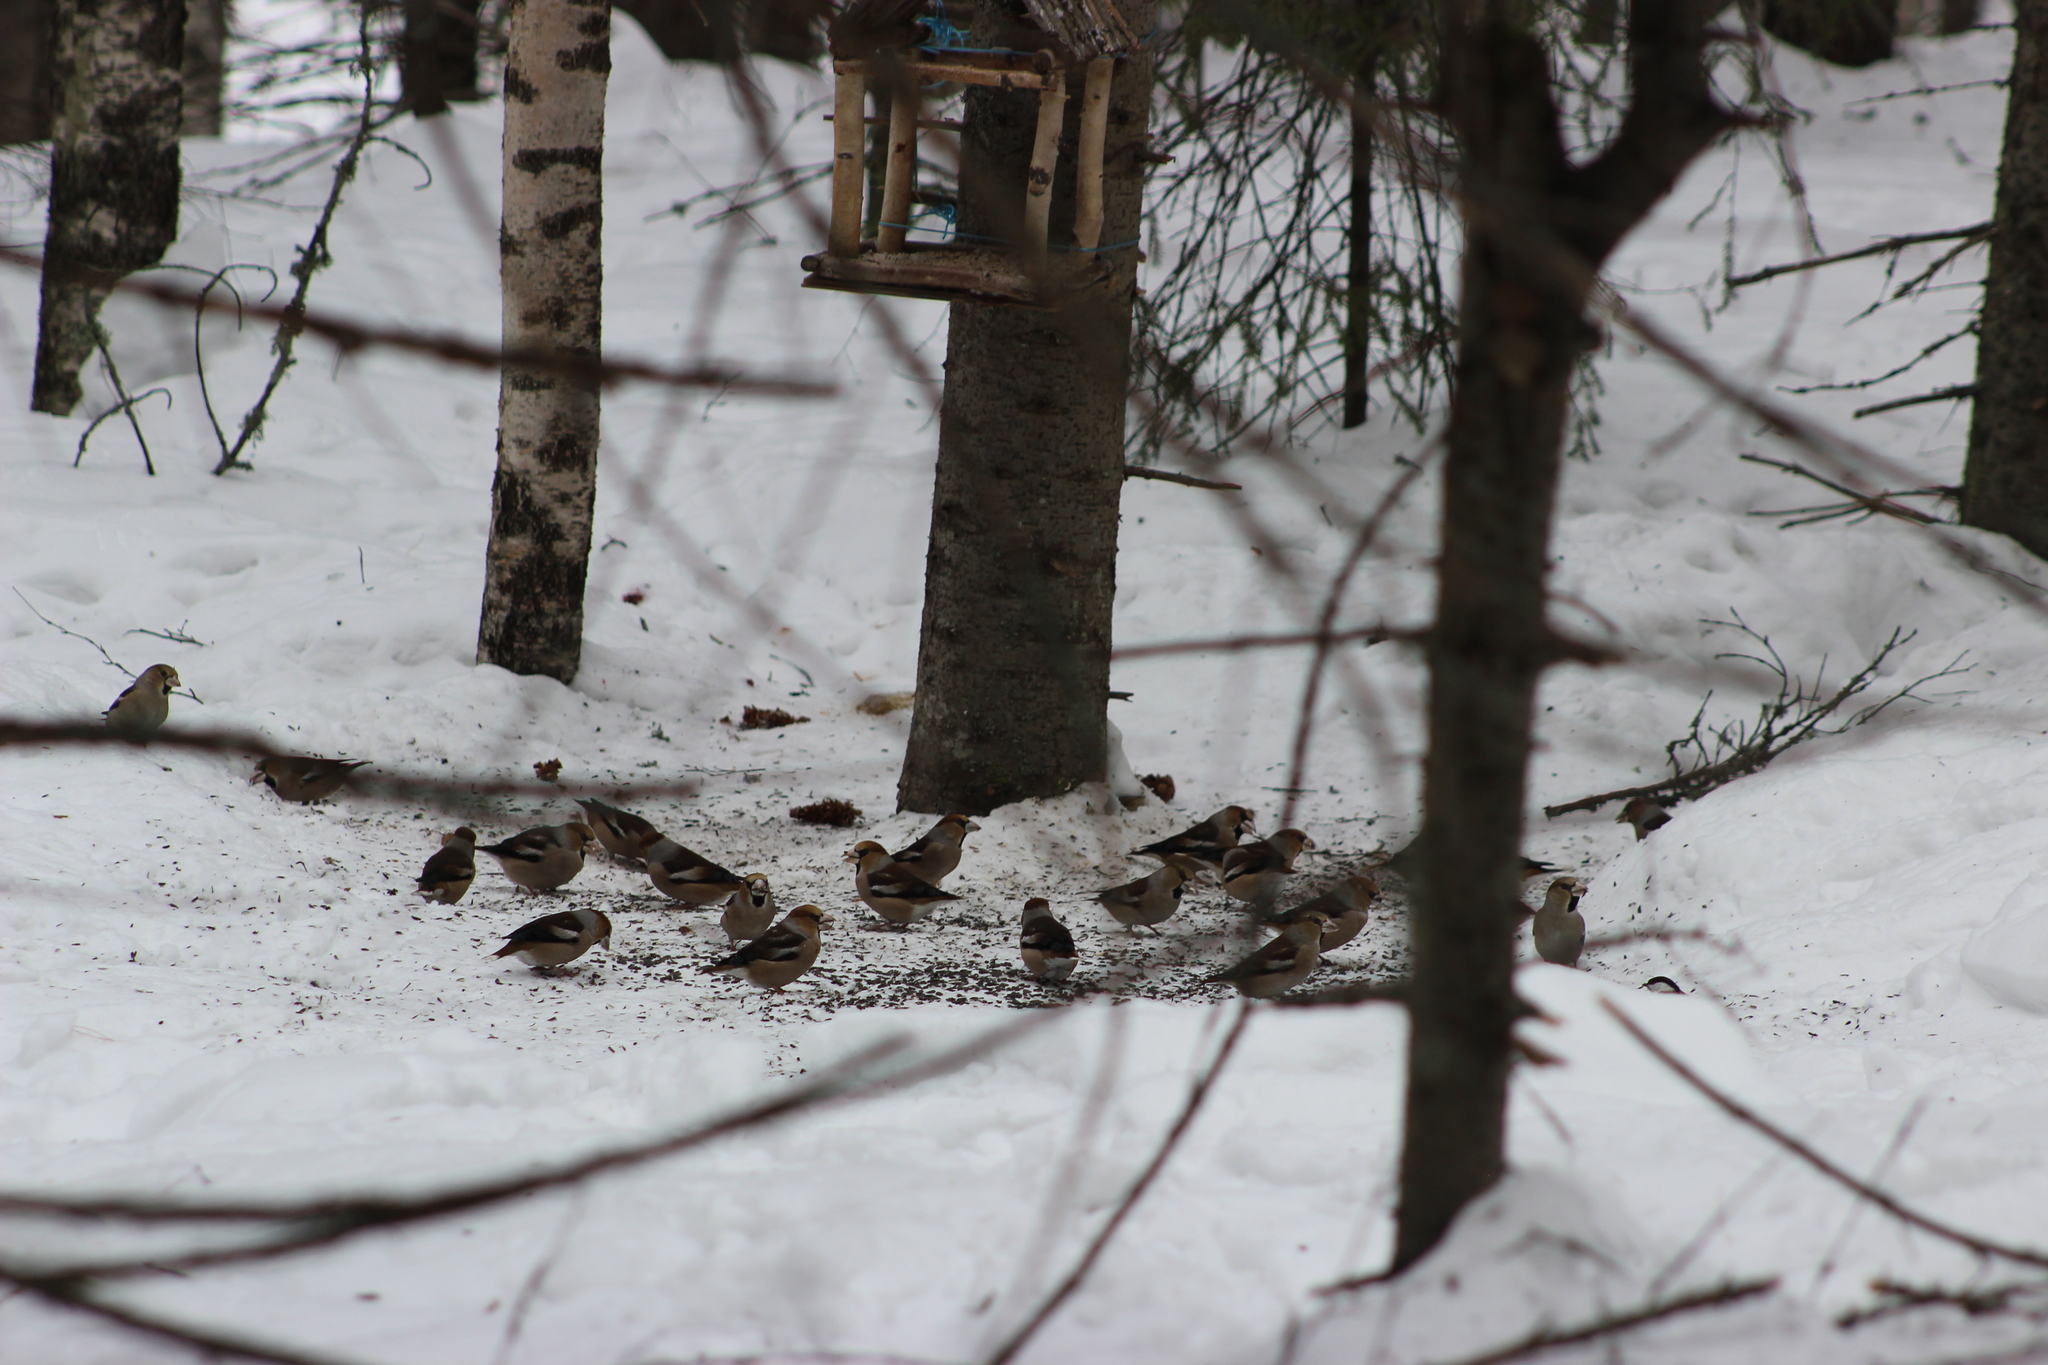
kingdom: Animalia
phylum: Chordata
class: Aves
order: Passeriformes
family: Fringillidae
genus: Coccothraustes
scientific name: Coccothraustes coccothraustes
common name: Hawfinch
